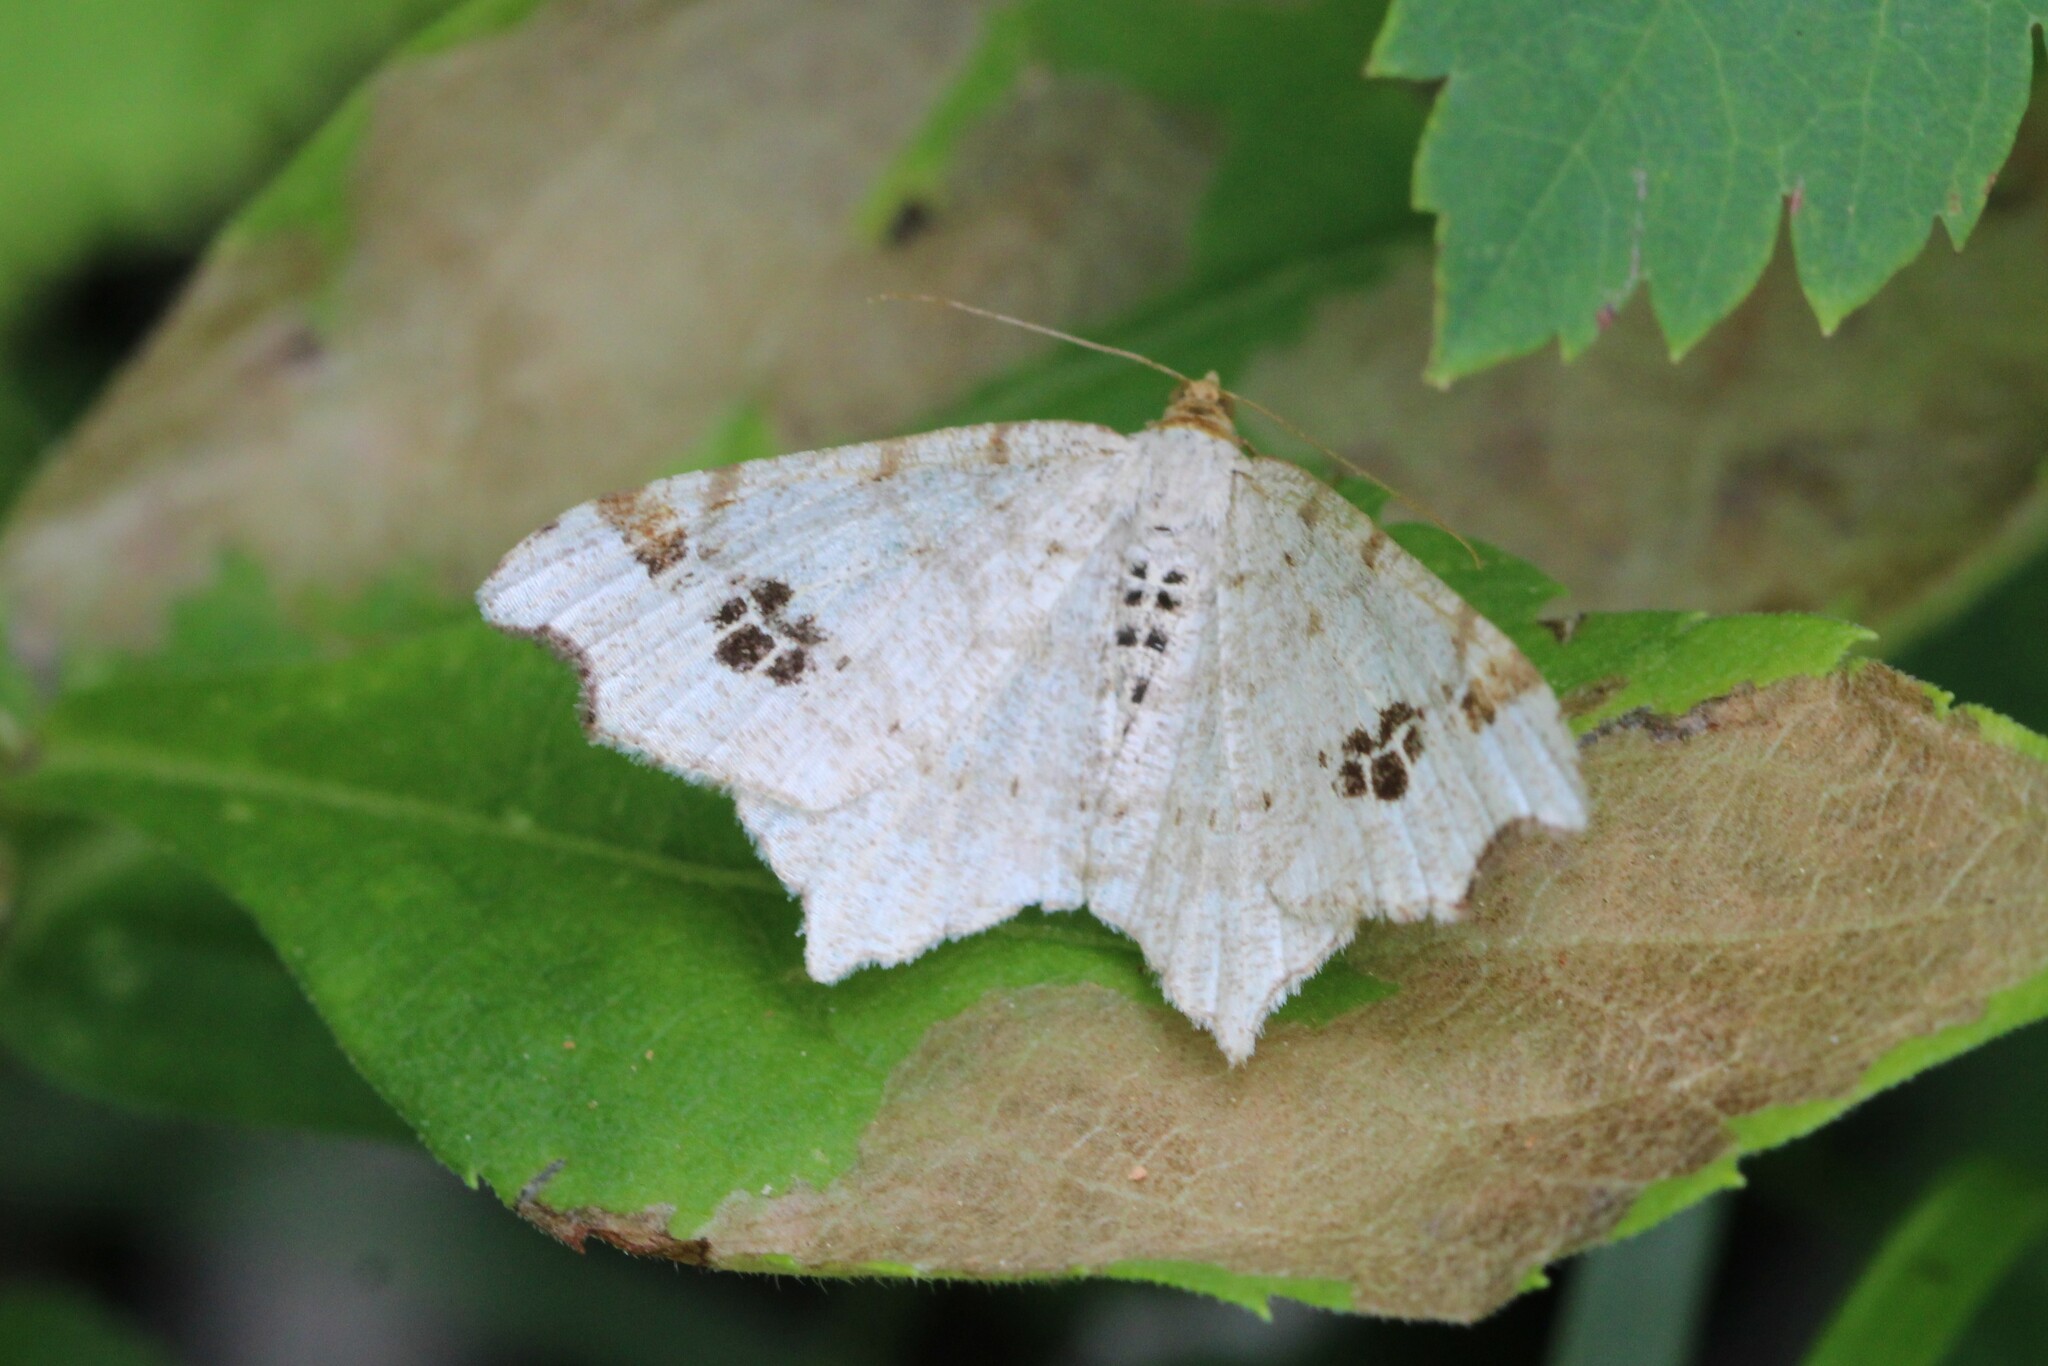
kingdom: Animalia
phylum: Arthropoda
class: Insecta
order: Lepidoptera
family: Geometridae
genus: Macaria
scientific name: Macaria aemulataria
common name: Common angle
